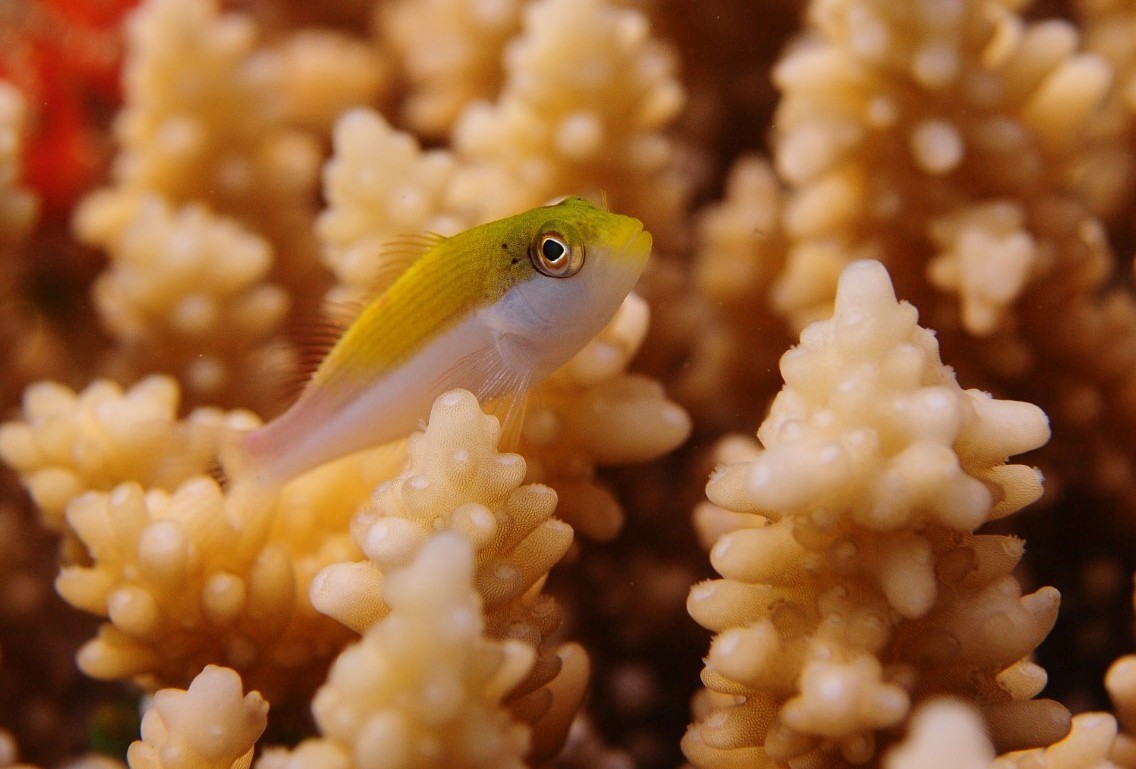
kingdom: Animalia
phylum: Chordata
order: Perciformes
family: Cirrhitidae
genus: Paracirrhites
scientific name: Paracirrhites forsteri
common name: Freckled hawkfish
